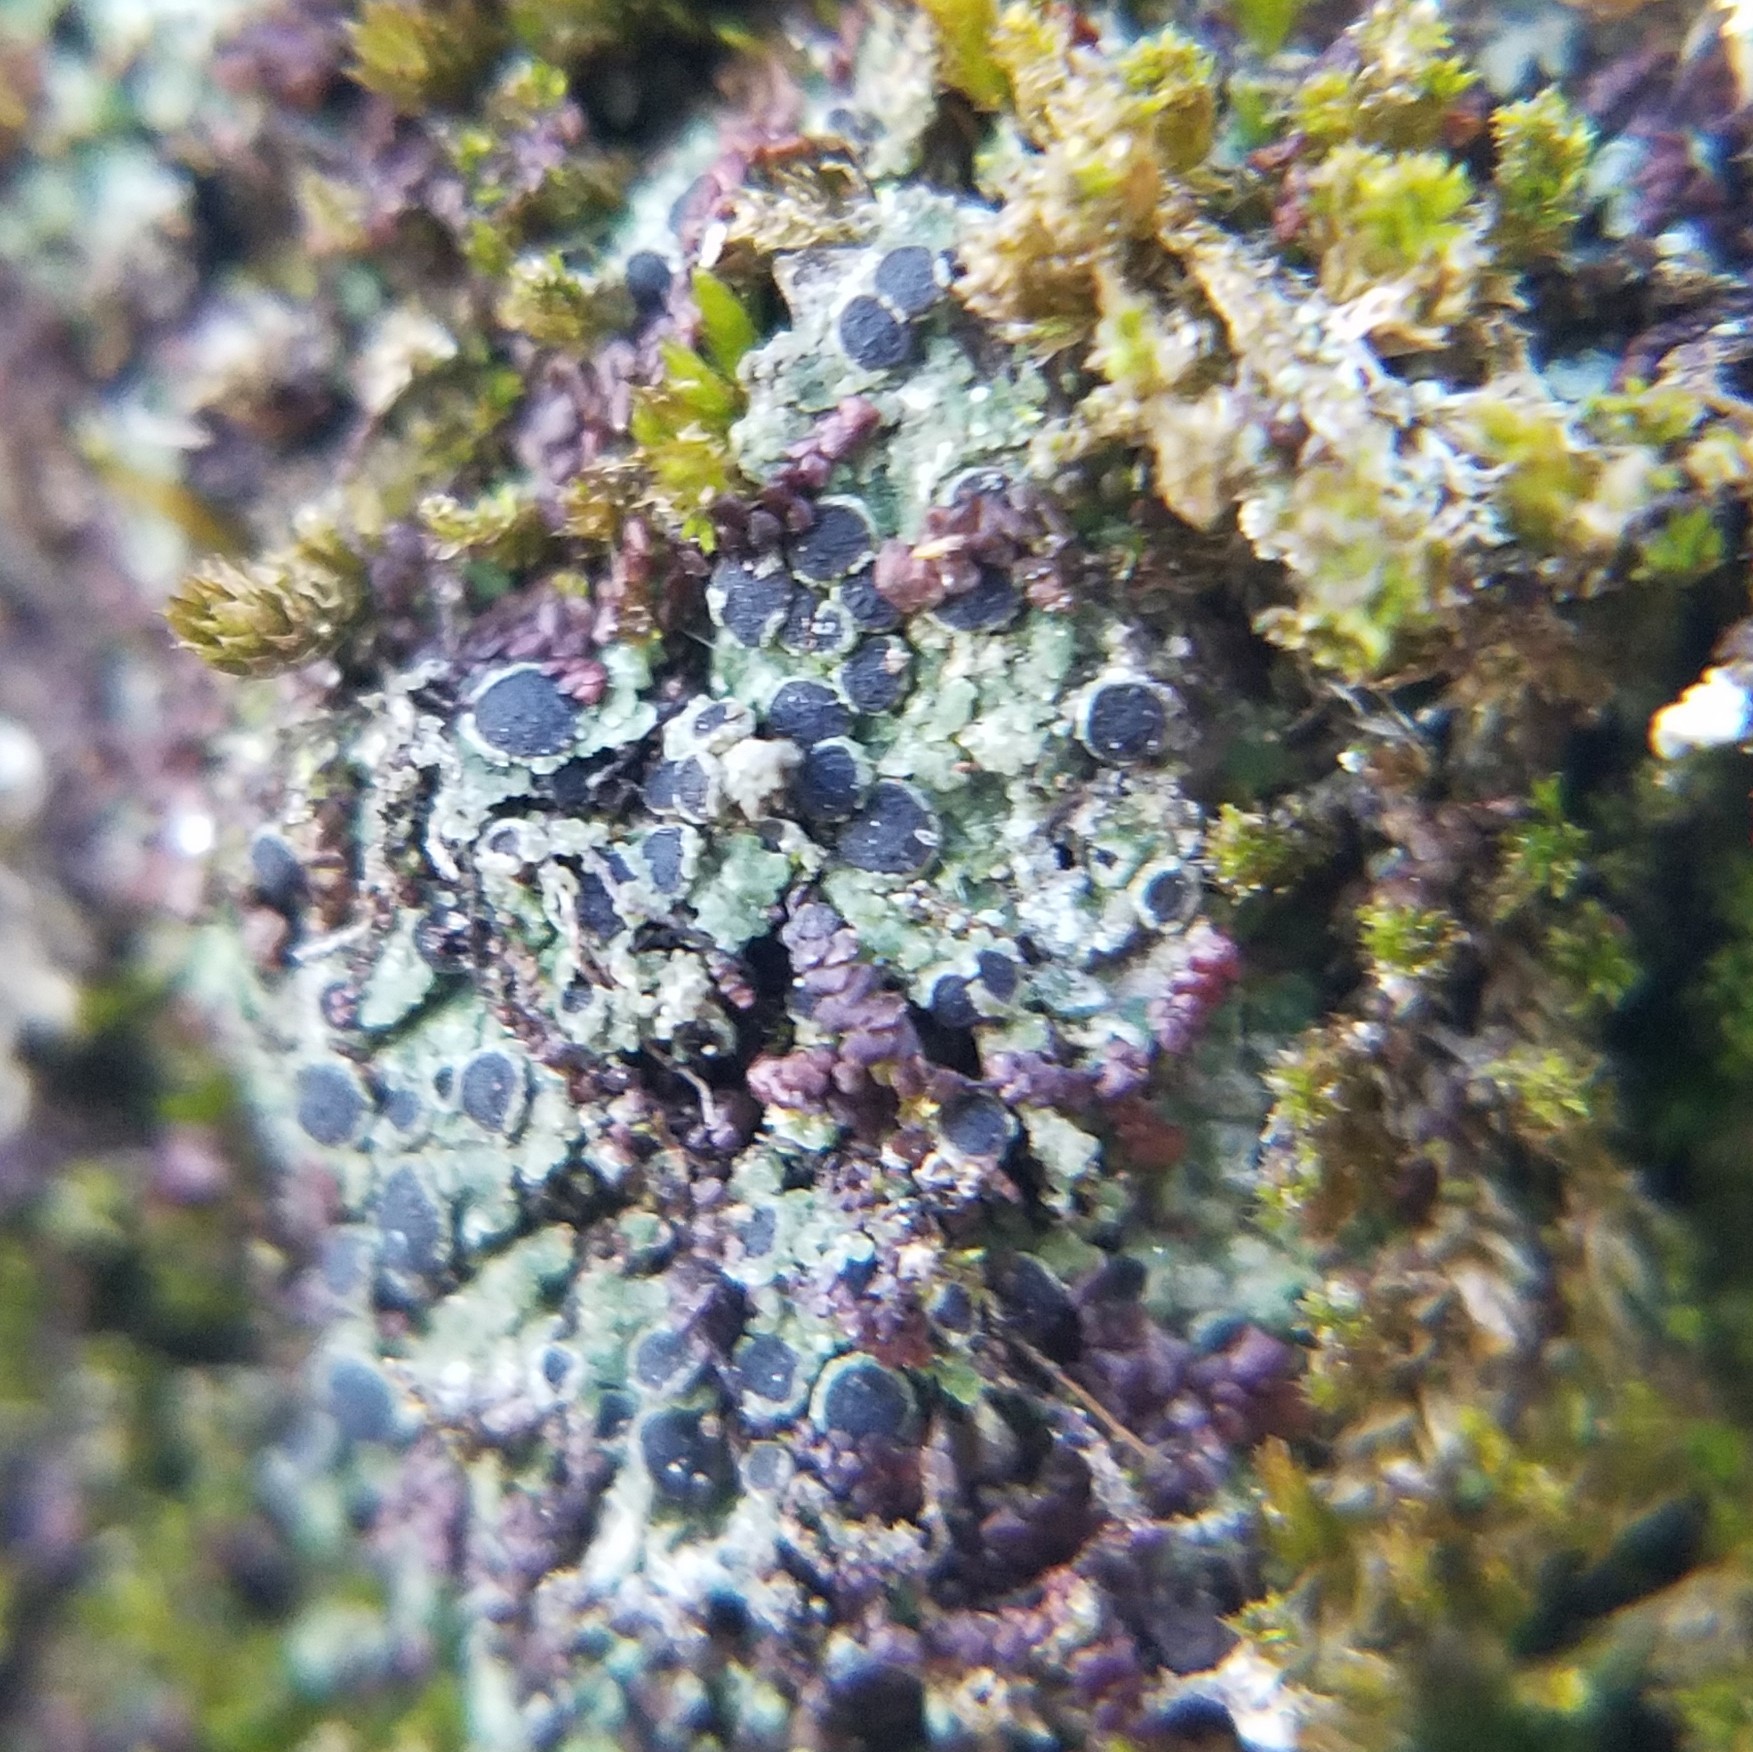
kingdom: Fungi
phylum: Ascomycota
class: Lecanoromycetes
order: Caliciales
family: Physciaceae
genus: Rinodina
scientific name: Rinodina dolichospora
